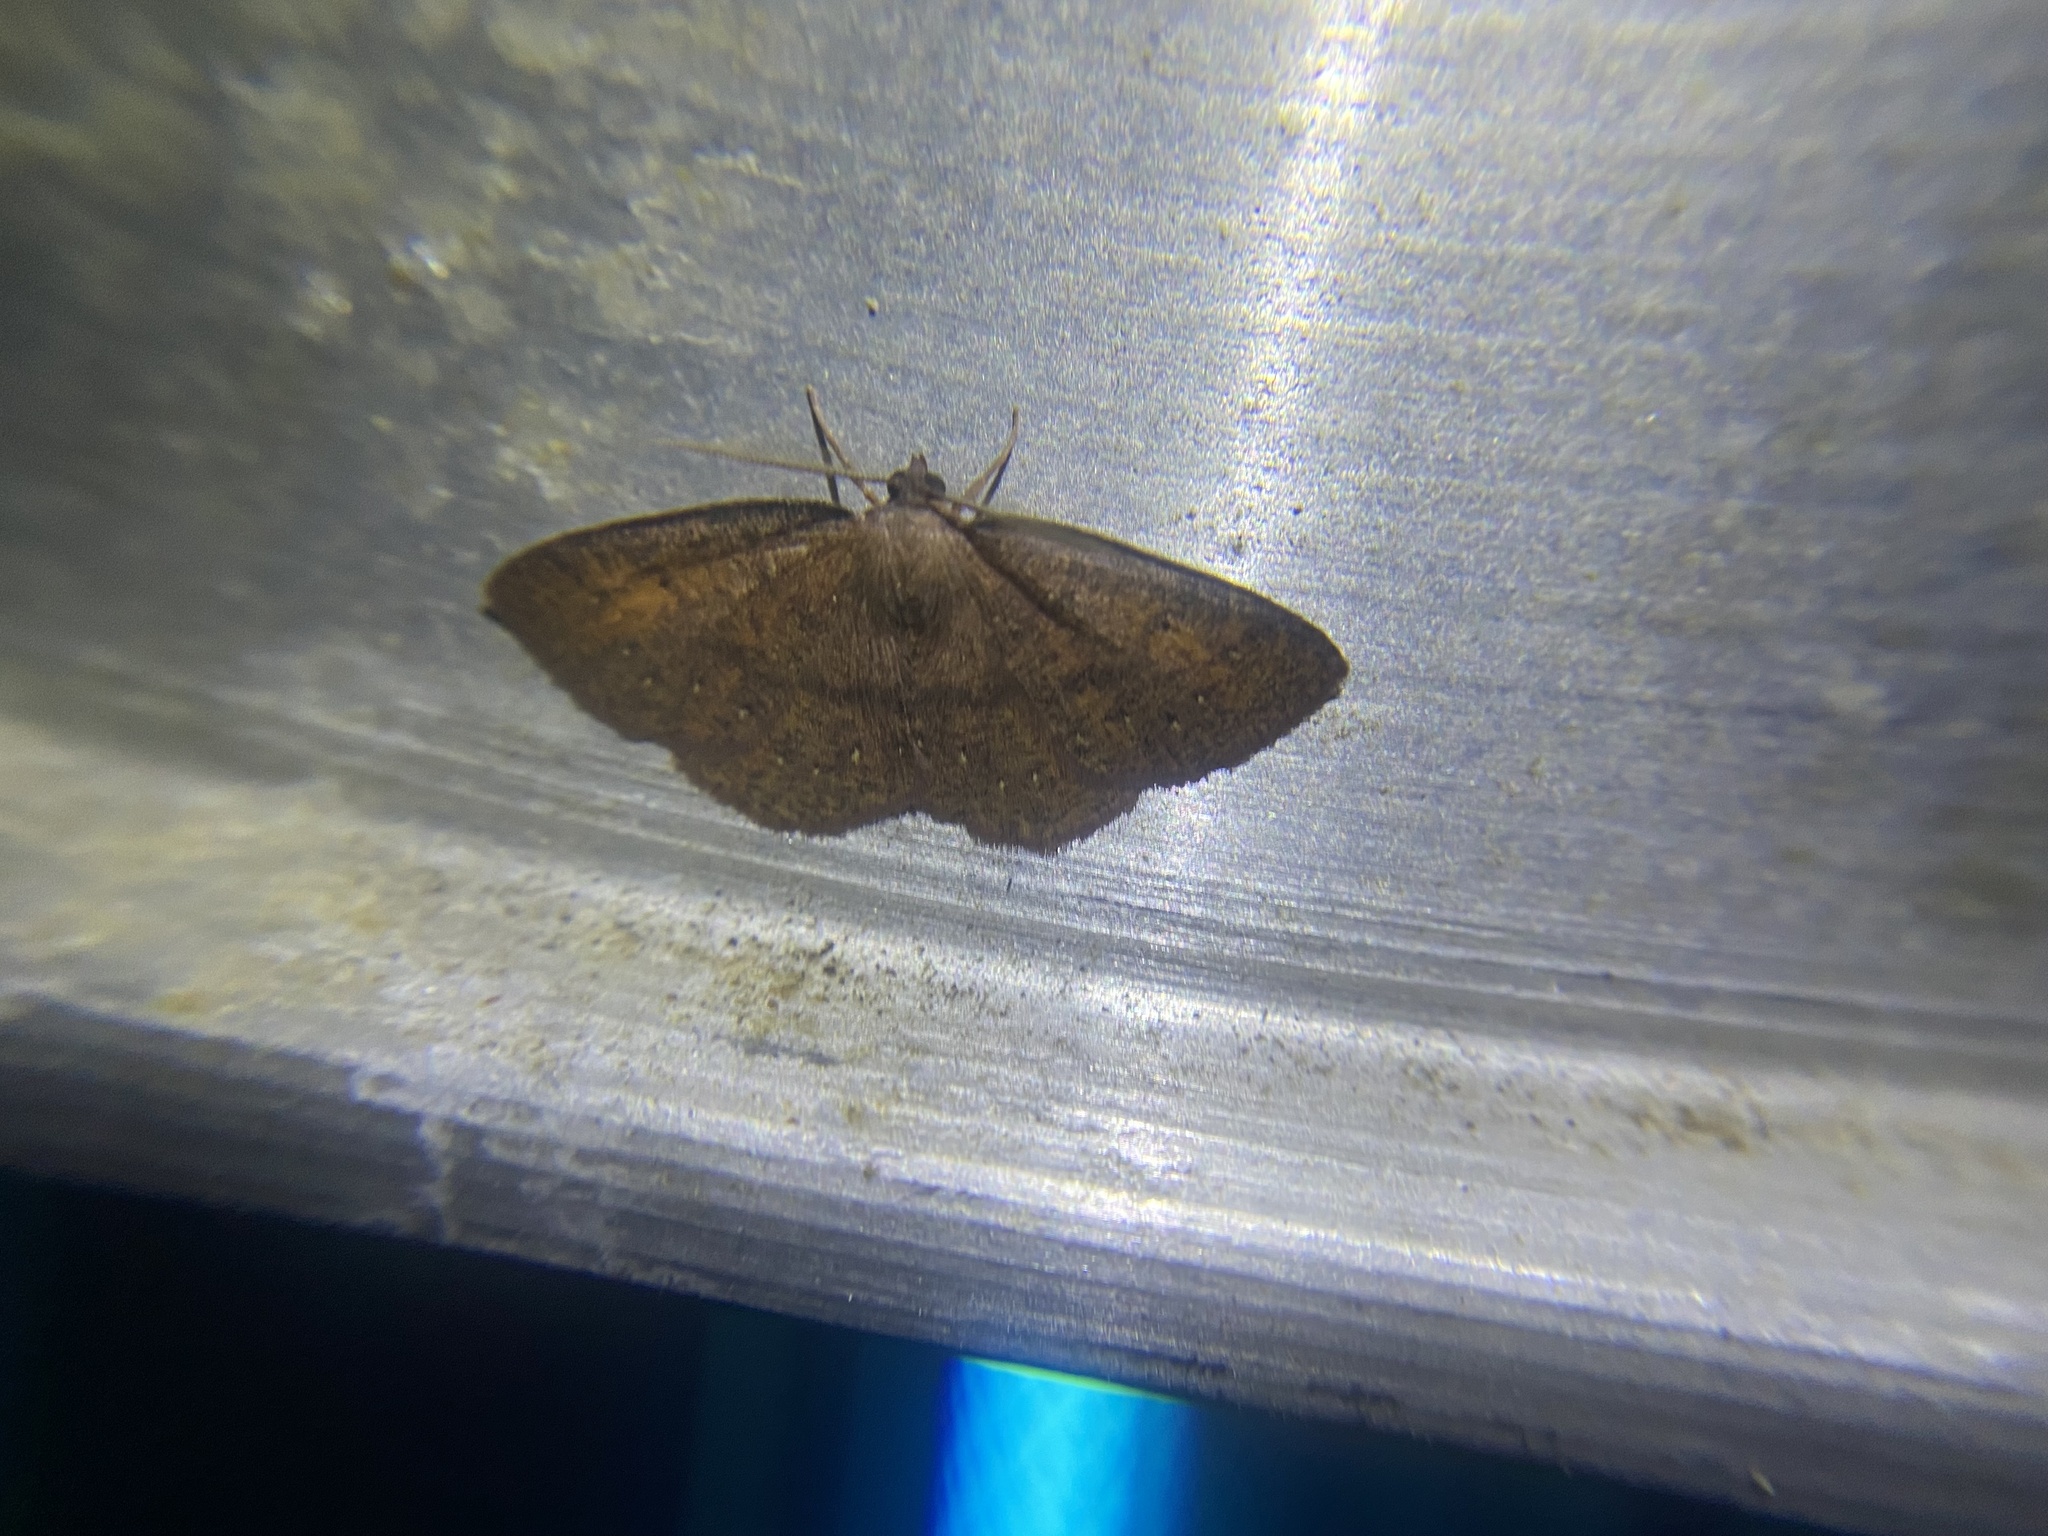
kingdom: Animalia
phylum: Arthropoda
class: Insecta
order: Lepidoptera
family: Geometridae
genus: Ilexia
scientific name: Ilexia intractata
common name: Black-dotted ruddy moth
